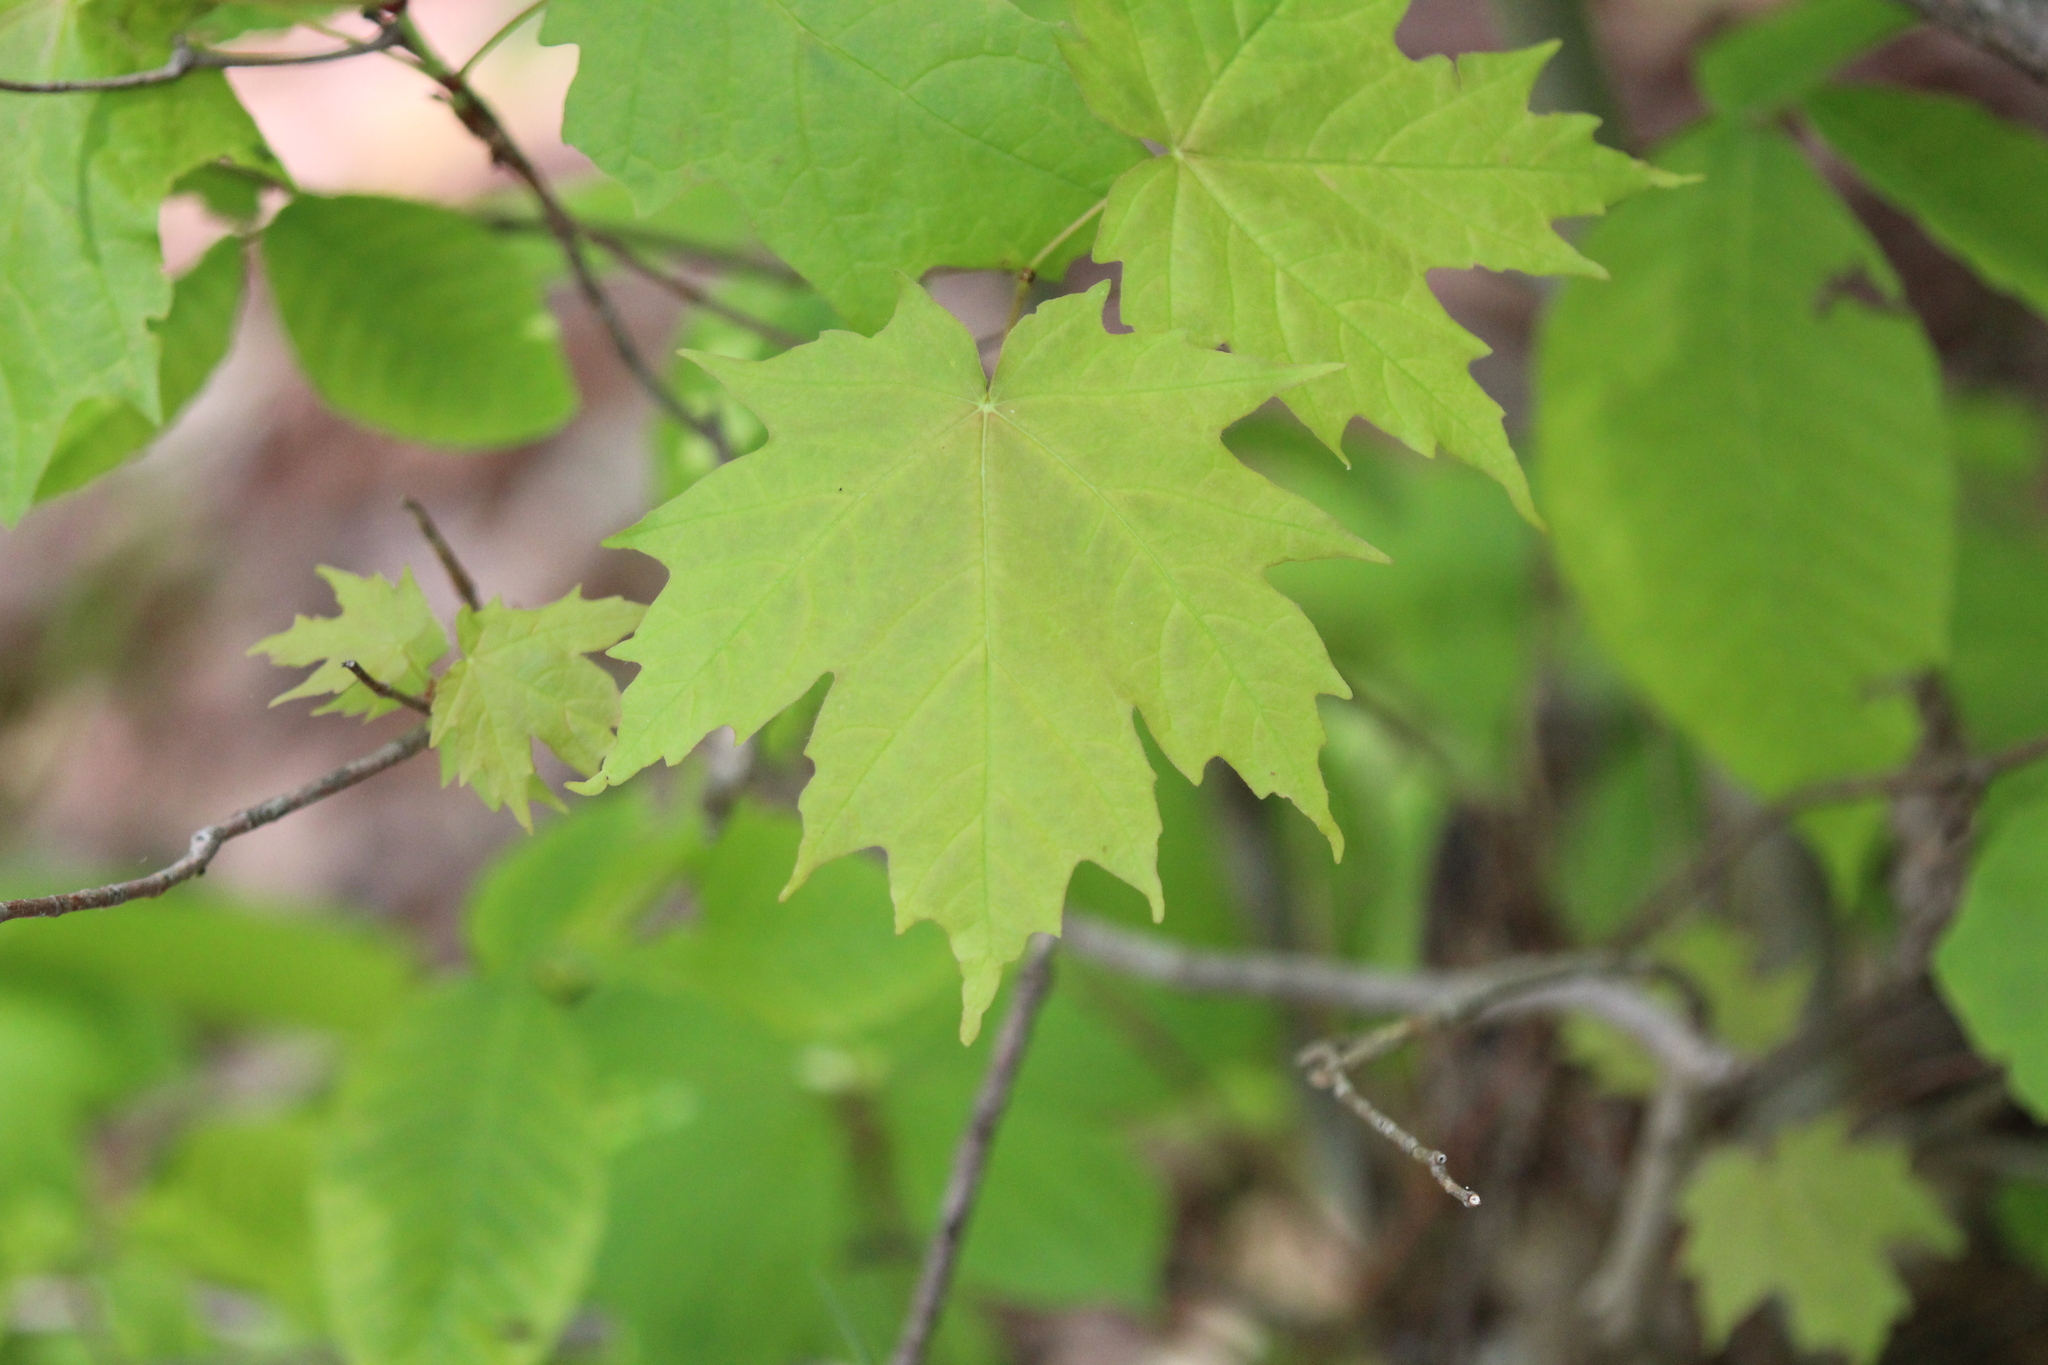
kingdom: Plantae
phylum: Tracheophyta
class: Magnoliopsida
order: Sapindales
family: Sapindaceae
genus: Acer
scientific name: Acer saccharum
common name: Sugar maple
